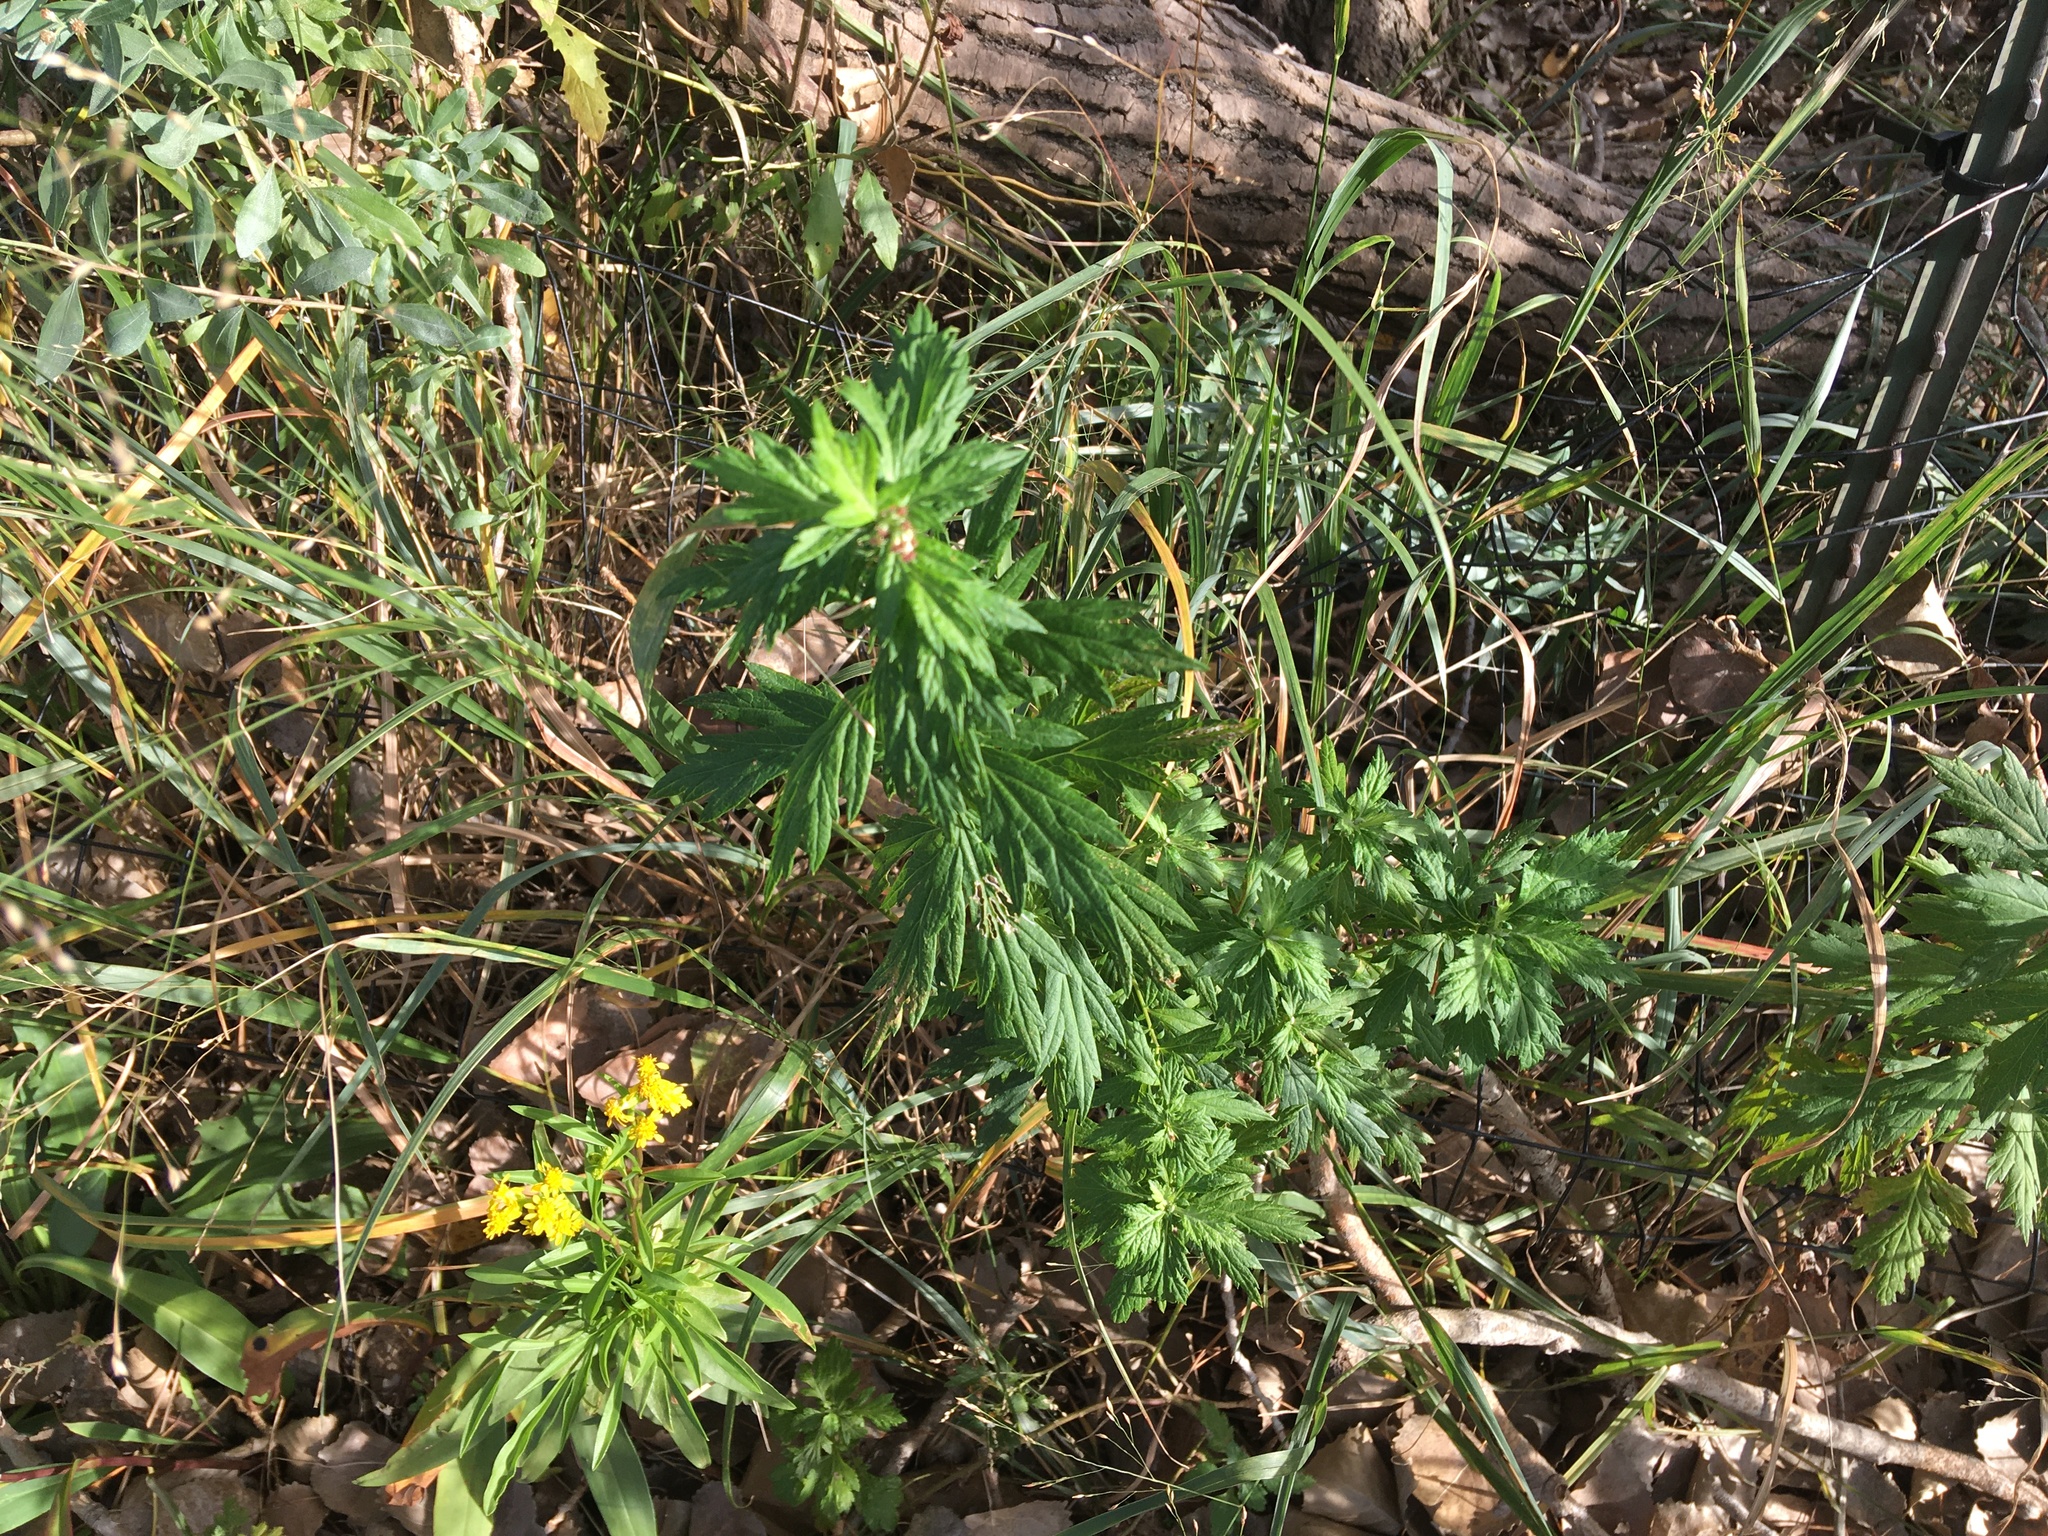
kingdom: Plantae
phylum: Tracheophyta
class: Magnoliopsida
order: Asterales
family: Asteraceae
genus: Artemisia
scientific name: Artemisia vulgaris
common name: Mugwort
